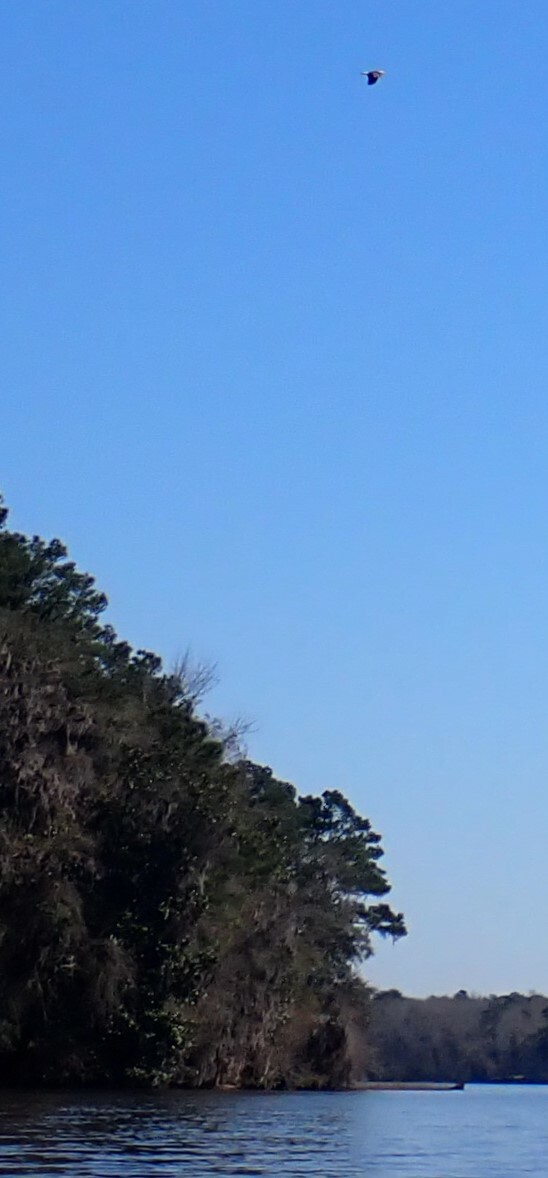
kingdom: Animalia
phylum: Chordata
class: Aves
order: Accipitriformes
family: Accipitridae
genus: Haliaeetus
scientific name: Haliaeetus leucocephalus
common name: Bald eagle
